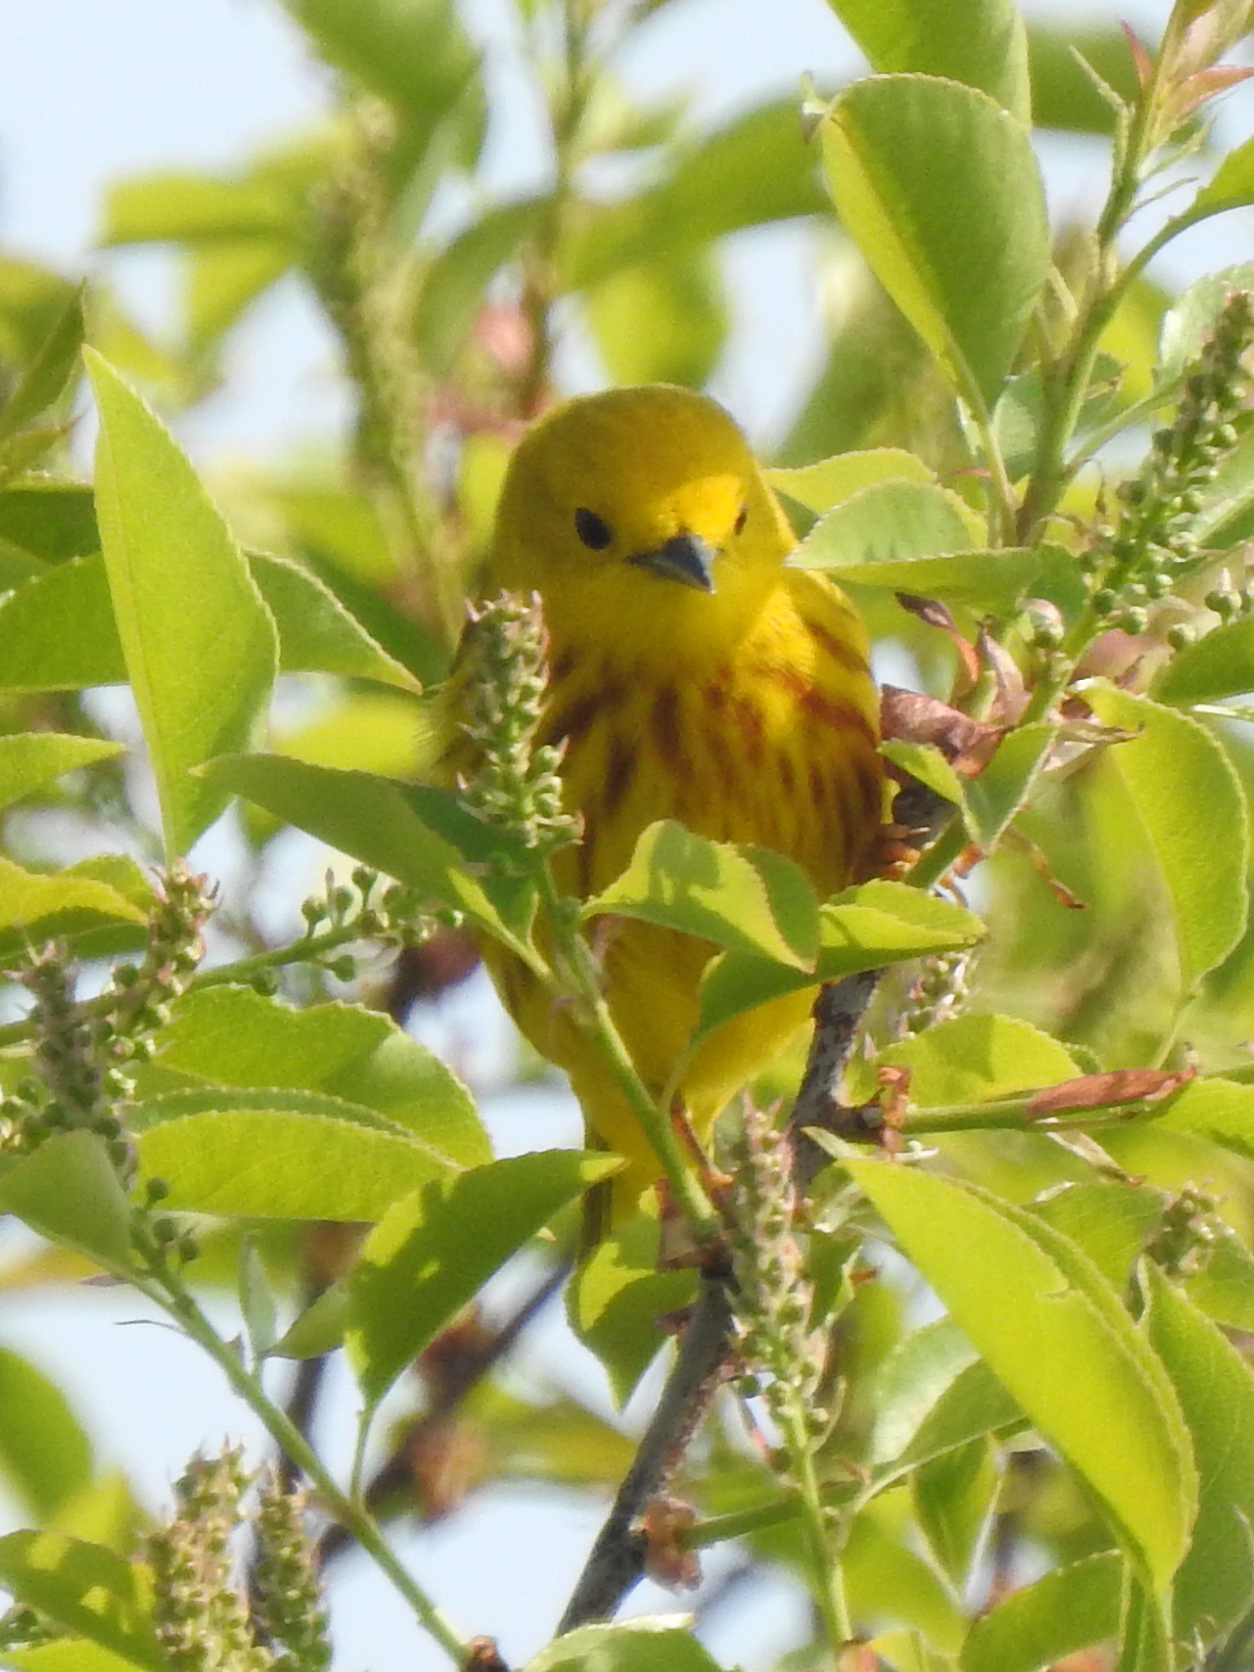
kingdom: Animalia
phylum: Chordata
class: Aves
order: Passeriformes
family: Parulidae
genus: Setophaga
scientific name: Setophaga petechia
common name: Yellow warbler
